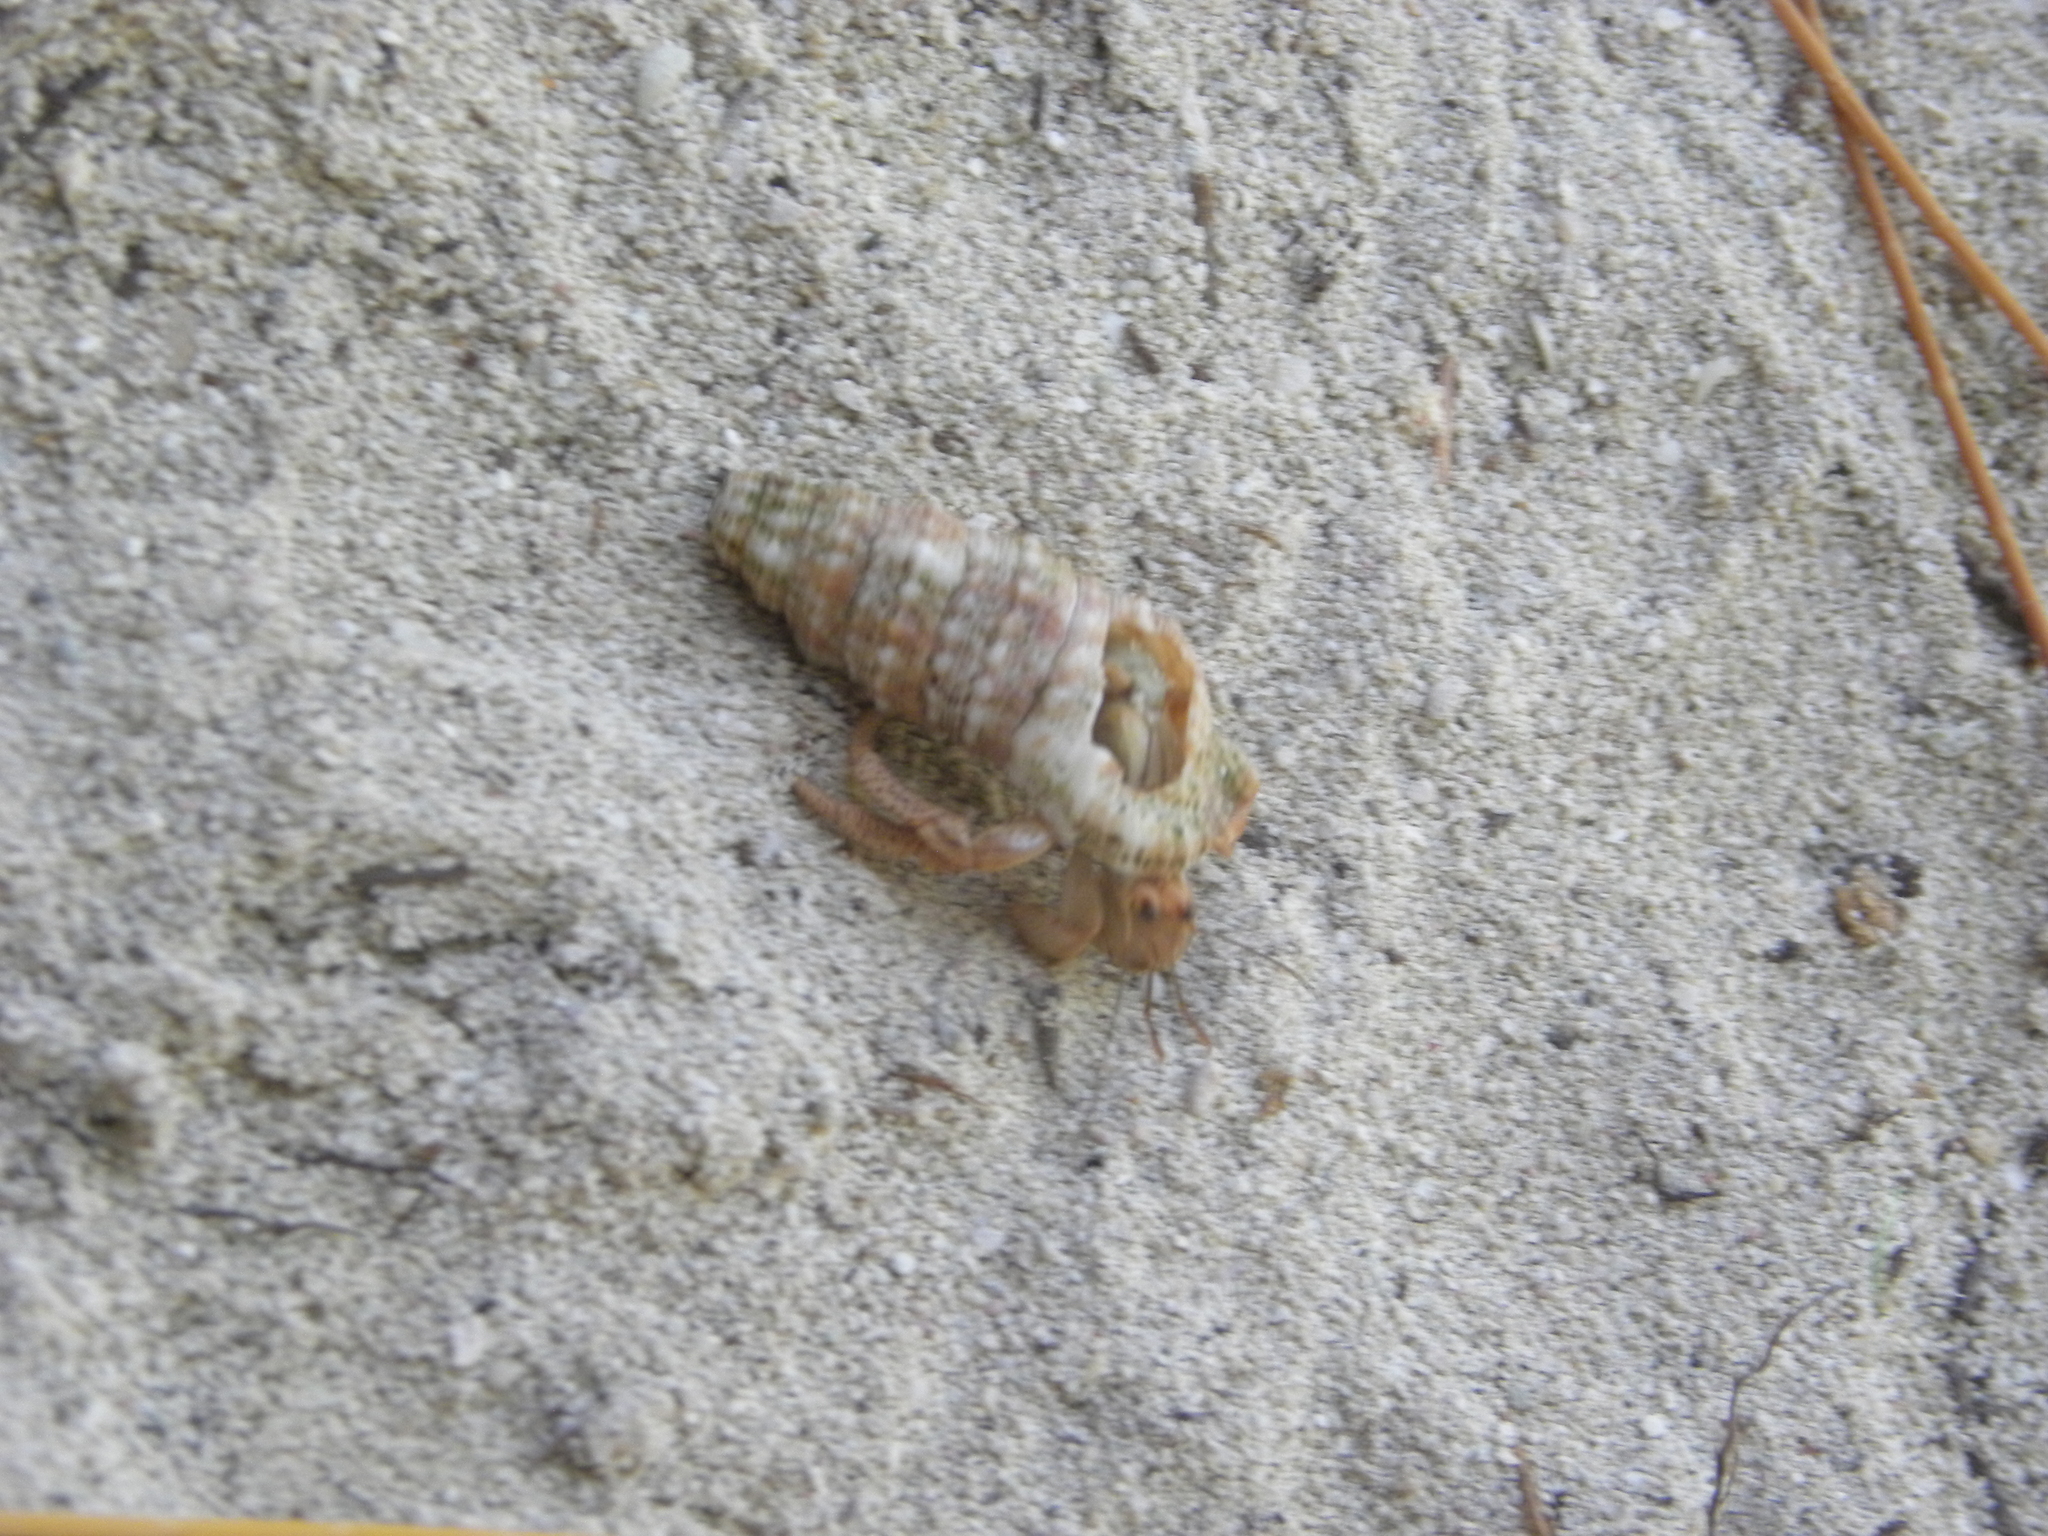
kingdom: Animalia
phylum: Arthropoda
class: Malacostraca
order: Decapoda
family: Coenobitidae
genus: Coenobita
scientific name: Coenobita clypeatus
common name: Caribbean hermit crab
